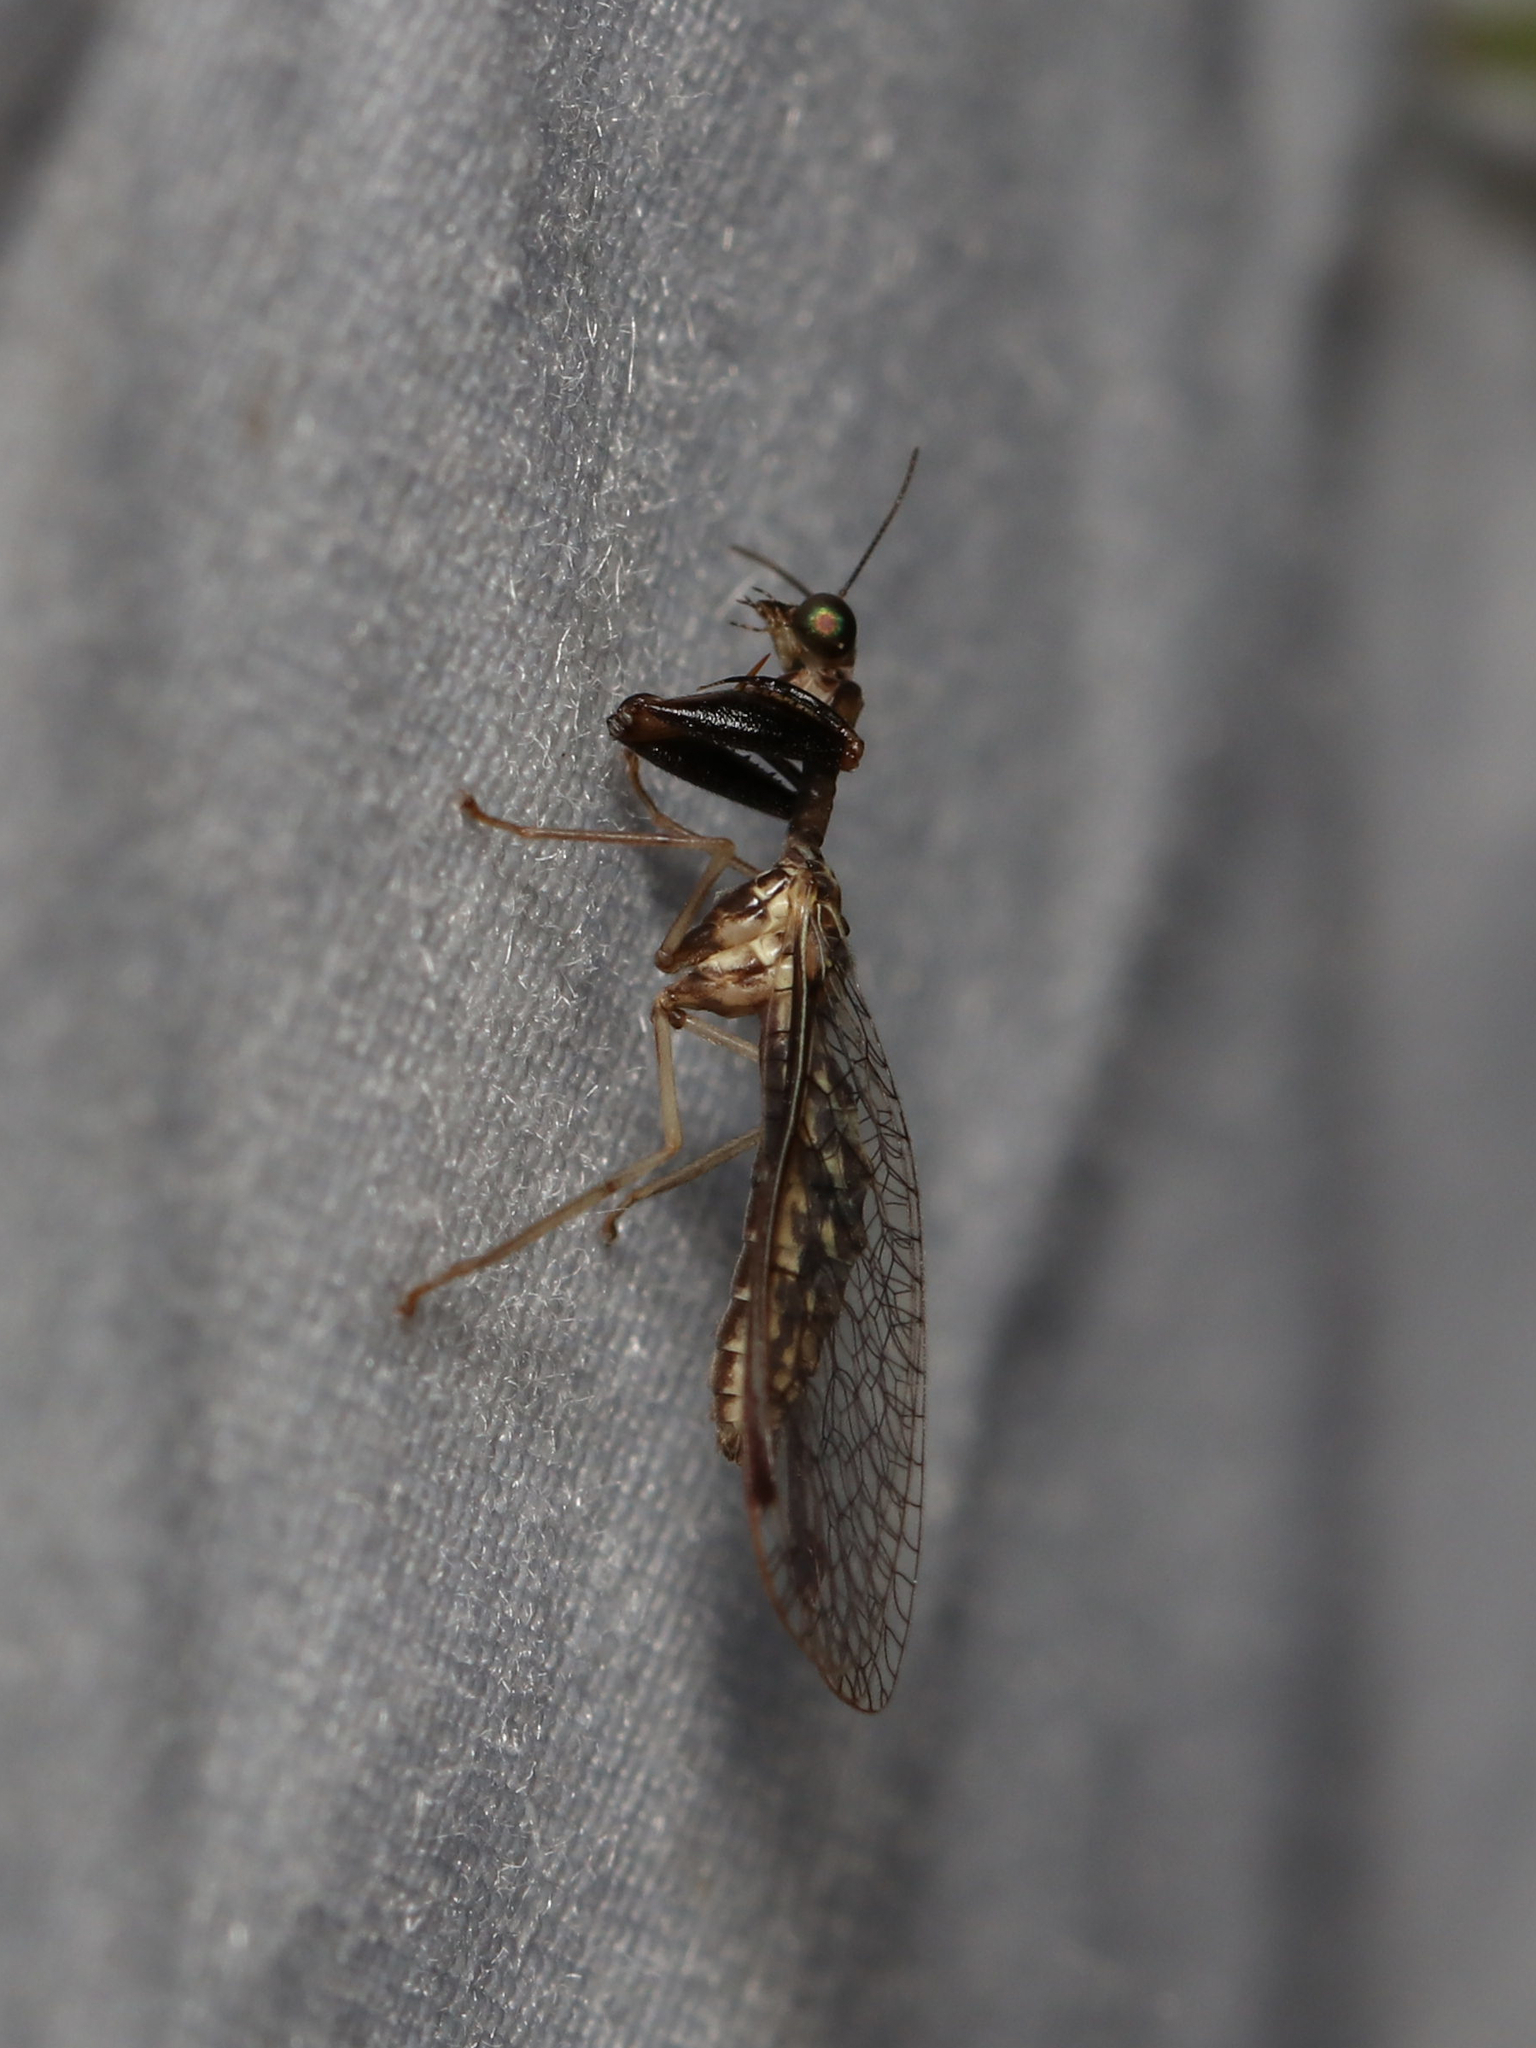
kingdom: Animalia
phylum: Arthropoda
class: Insecta
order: Neuroptera
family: Mantispidae
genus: Dicromantispa
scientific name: Dicromantispa sayi
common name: Say's mantidfly
